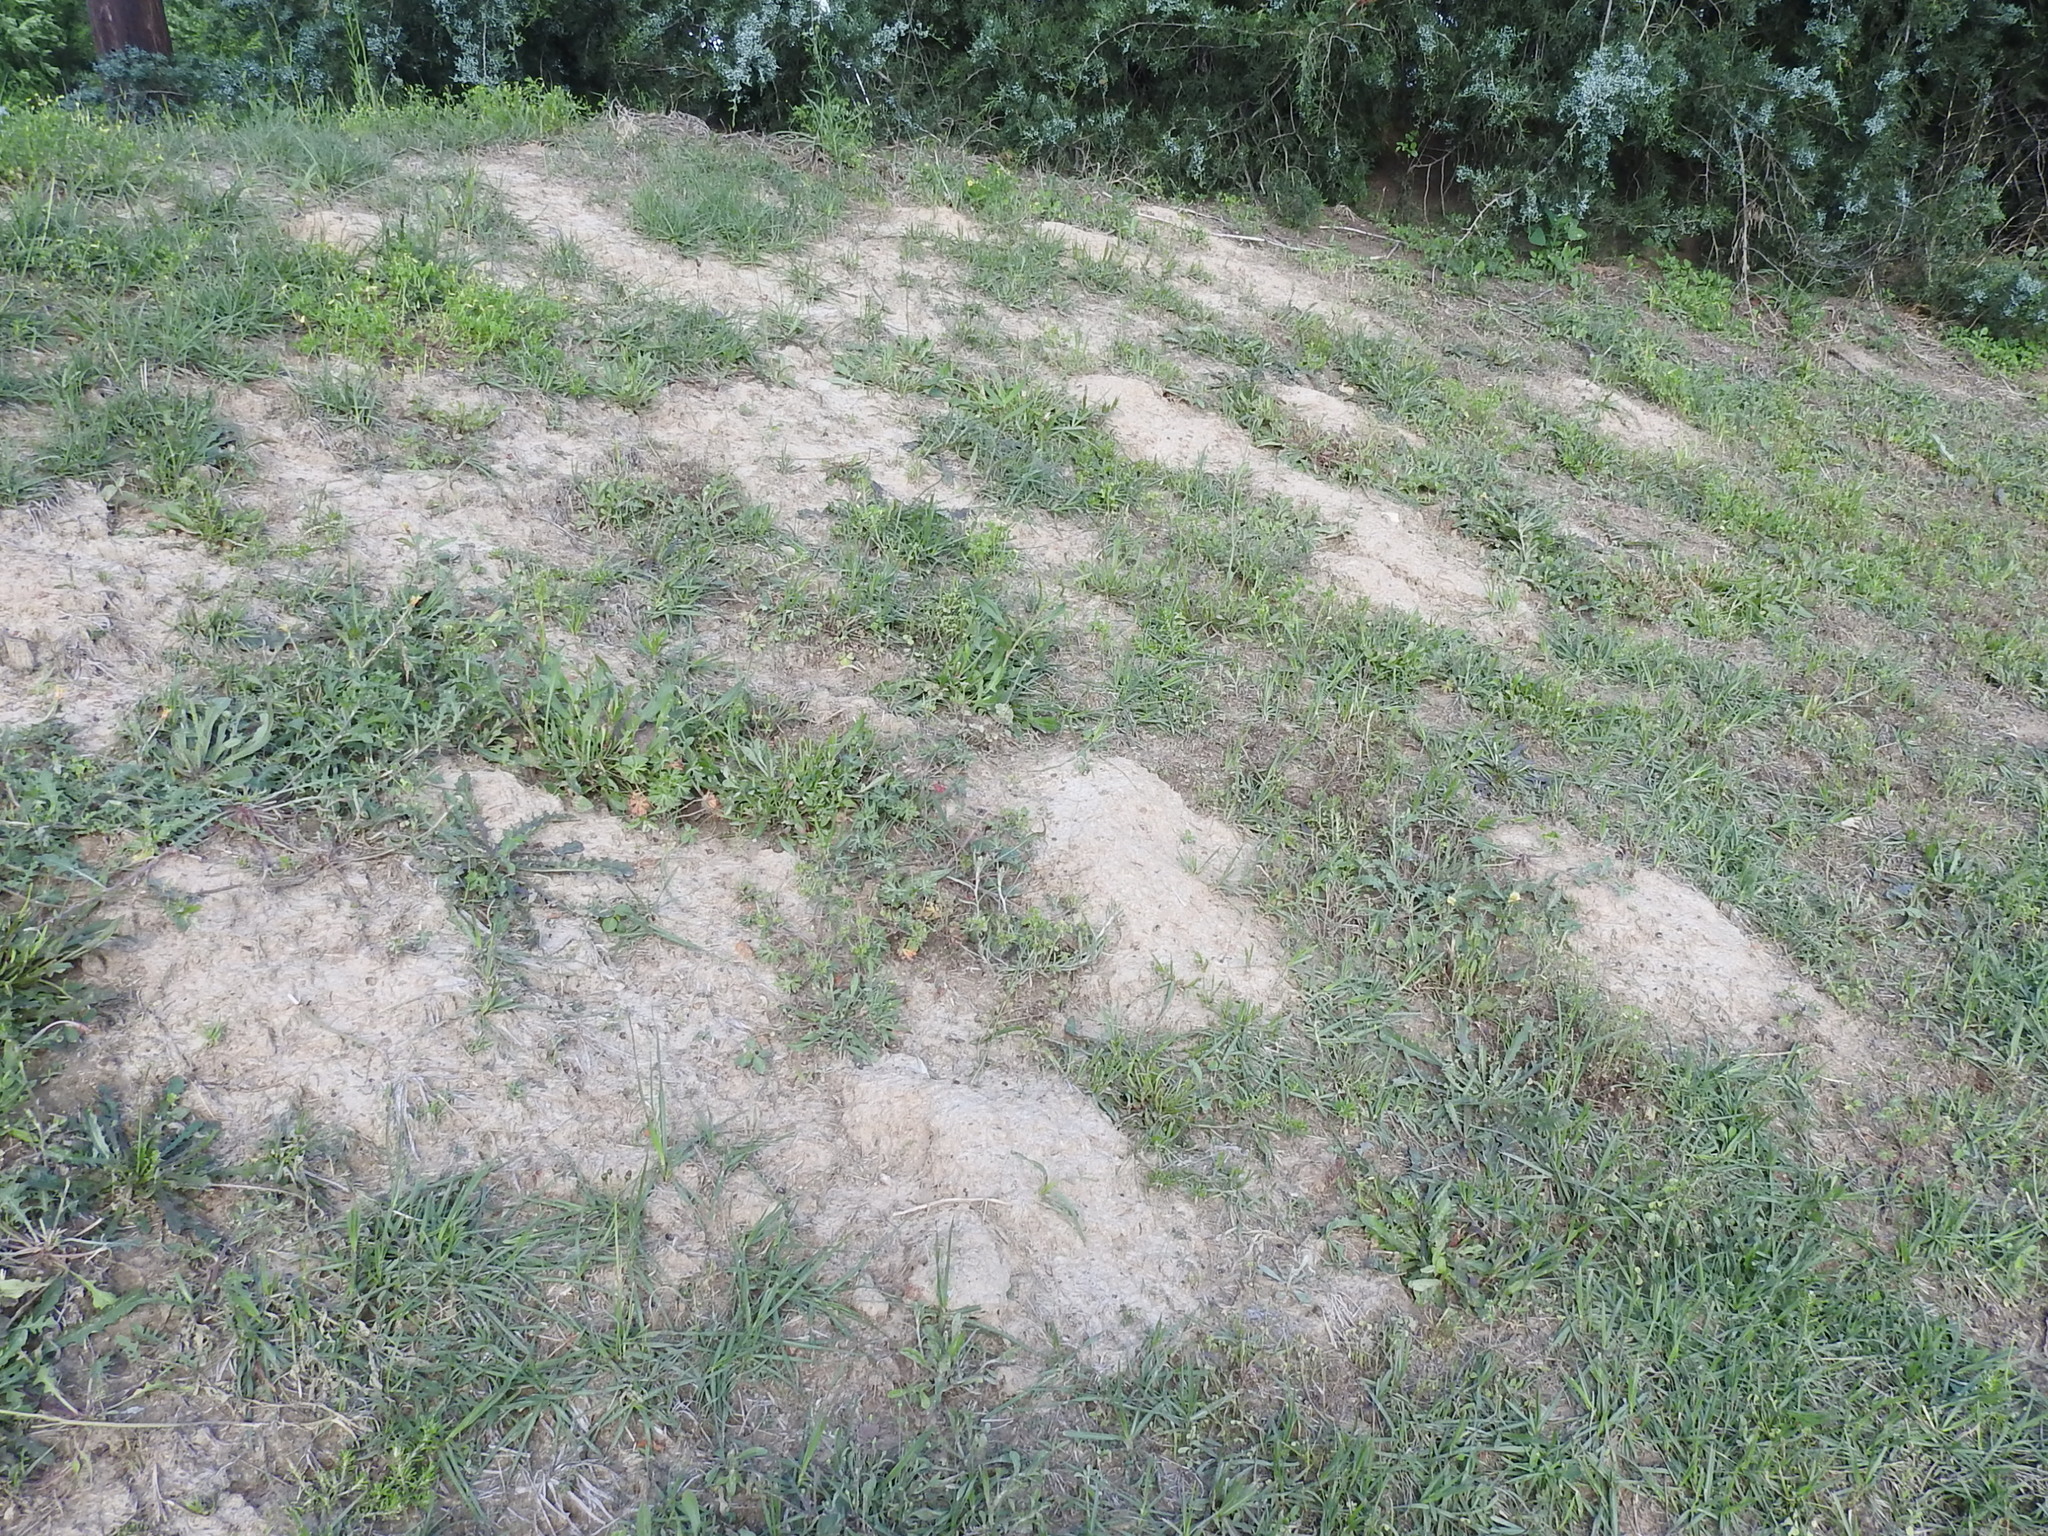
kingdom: Animalia
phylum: Chordata
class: Mammalia
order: Rodentia
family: Geomyidae
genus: Geomys
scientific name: Geomys breviceps
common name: Baird's pocket gopher
